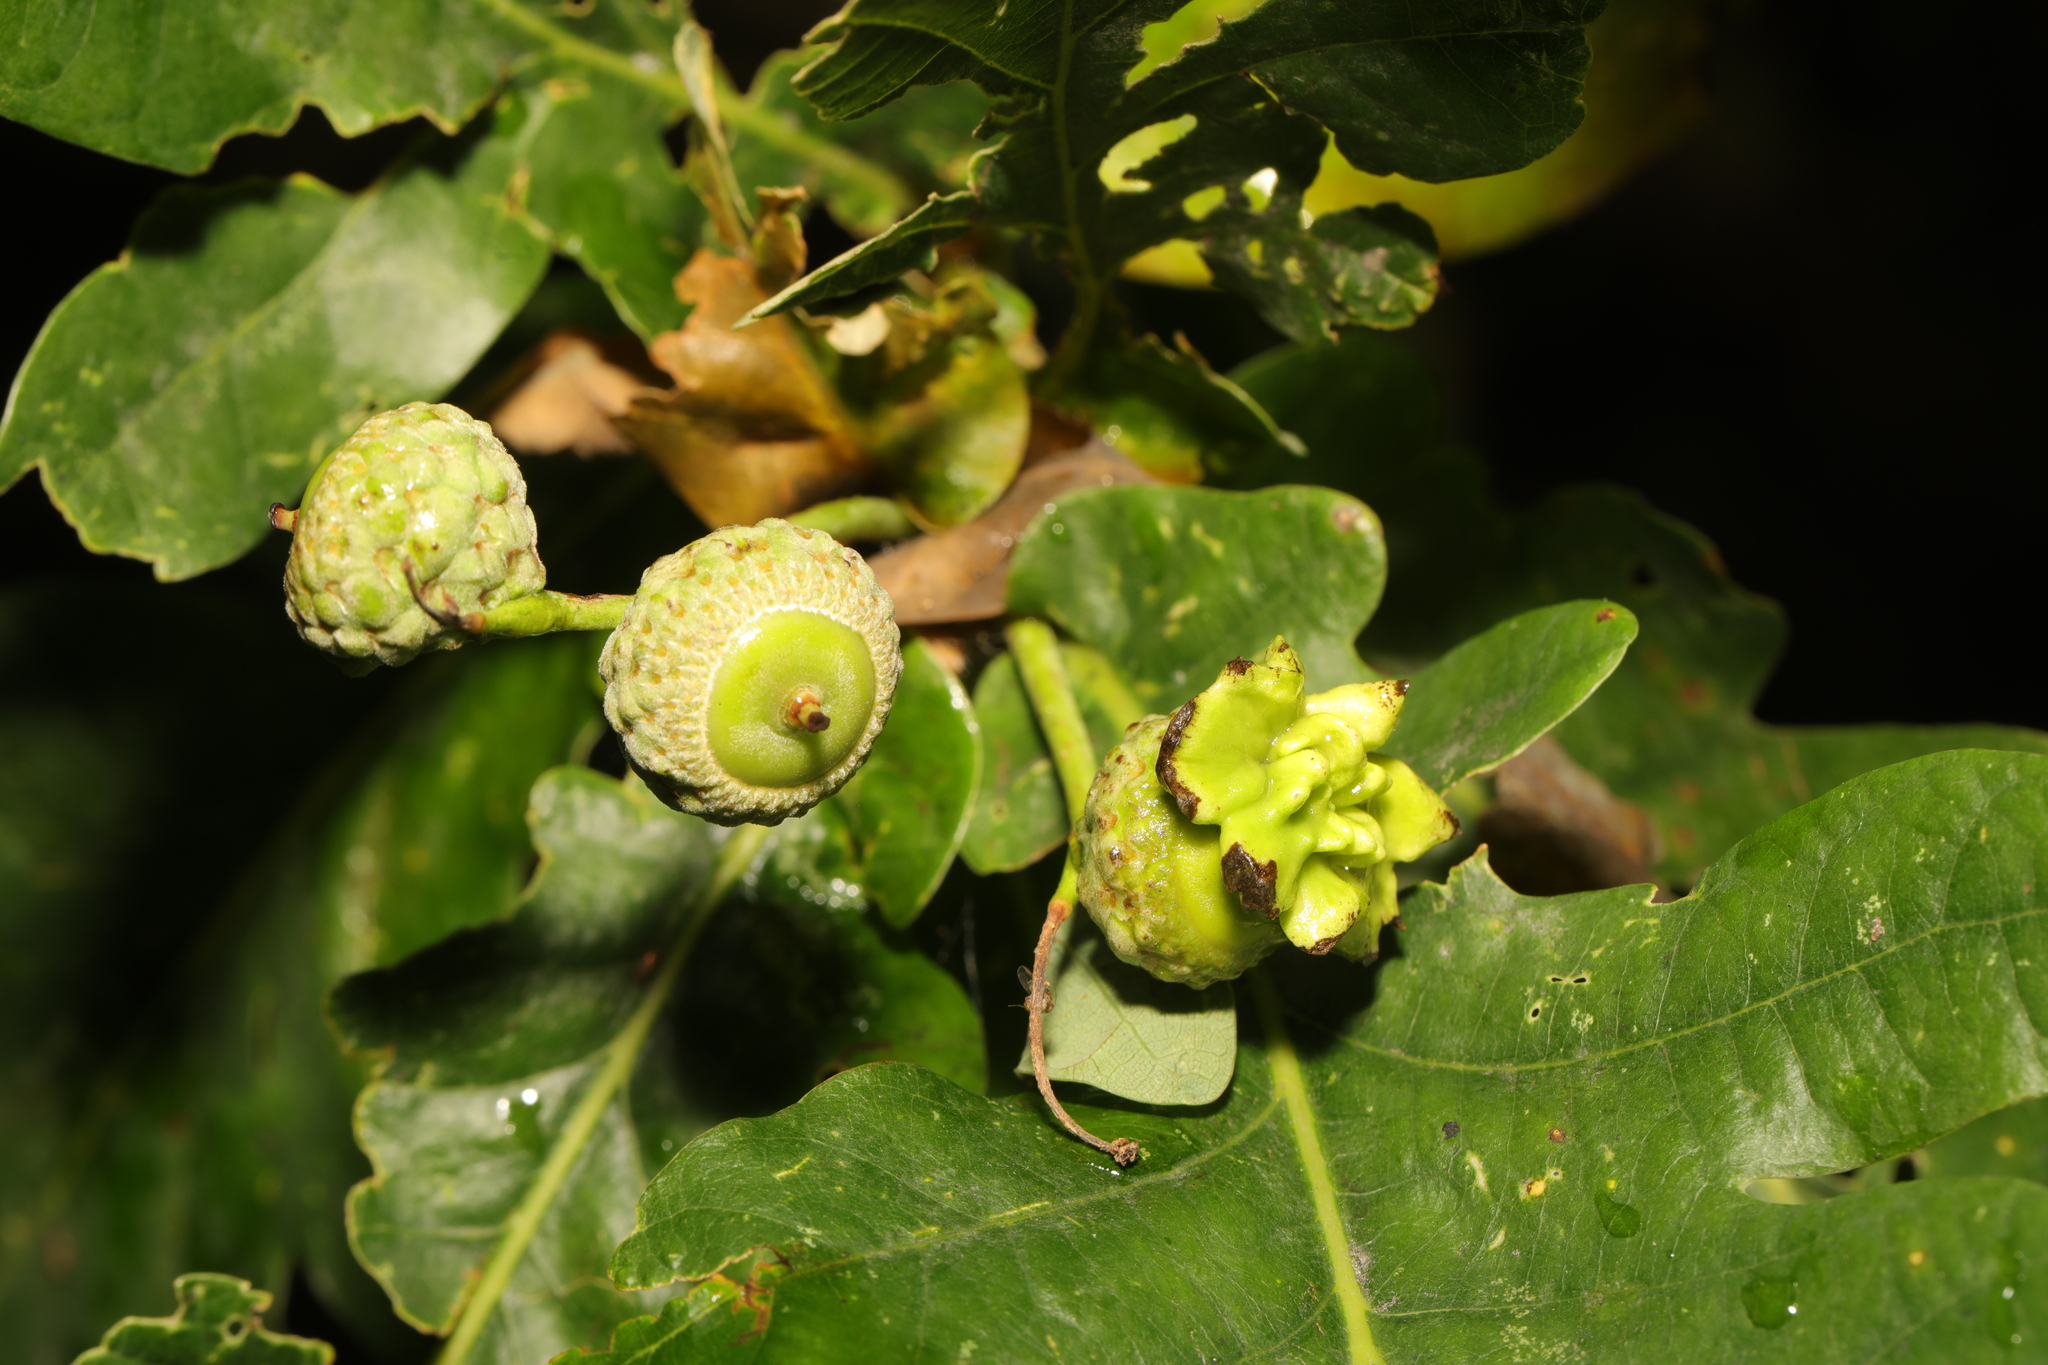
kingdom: Animalia
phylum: Arthropoda
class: Insecta
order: Hymenoptera
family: Cynipidae
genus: Andricus
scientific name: Andricus quercuscalicis
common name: Knopper gall
